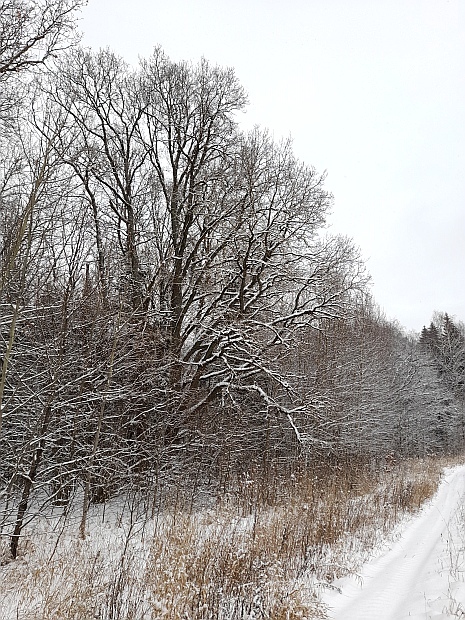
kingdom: Plantae
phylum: Tracheophyta
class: Magnoliopsida
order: Fagales
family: Fagaceae
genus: Quercus
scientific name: Quercus robur
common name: Pedunculate oak
